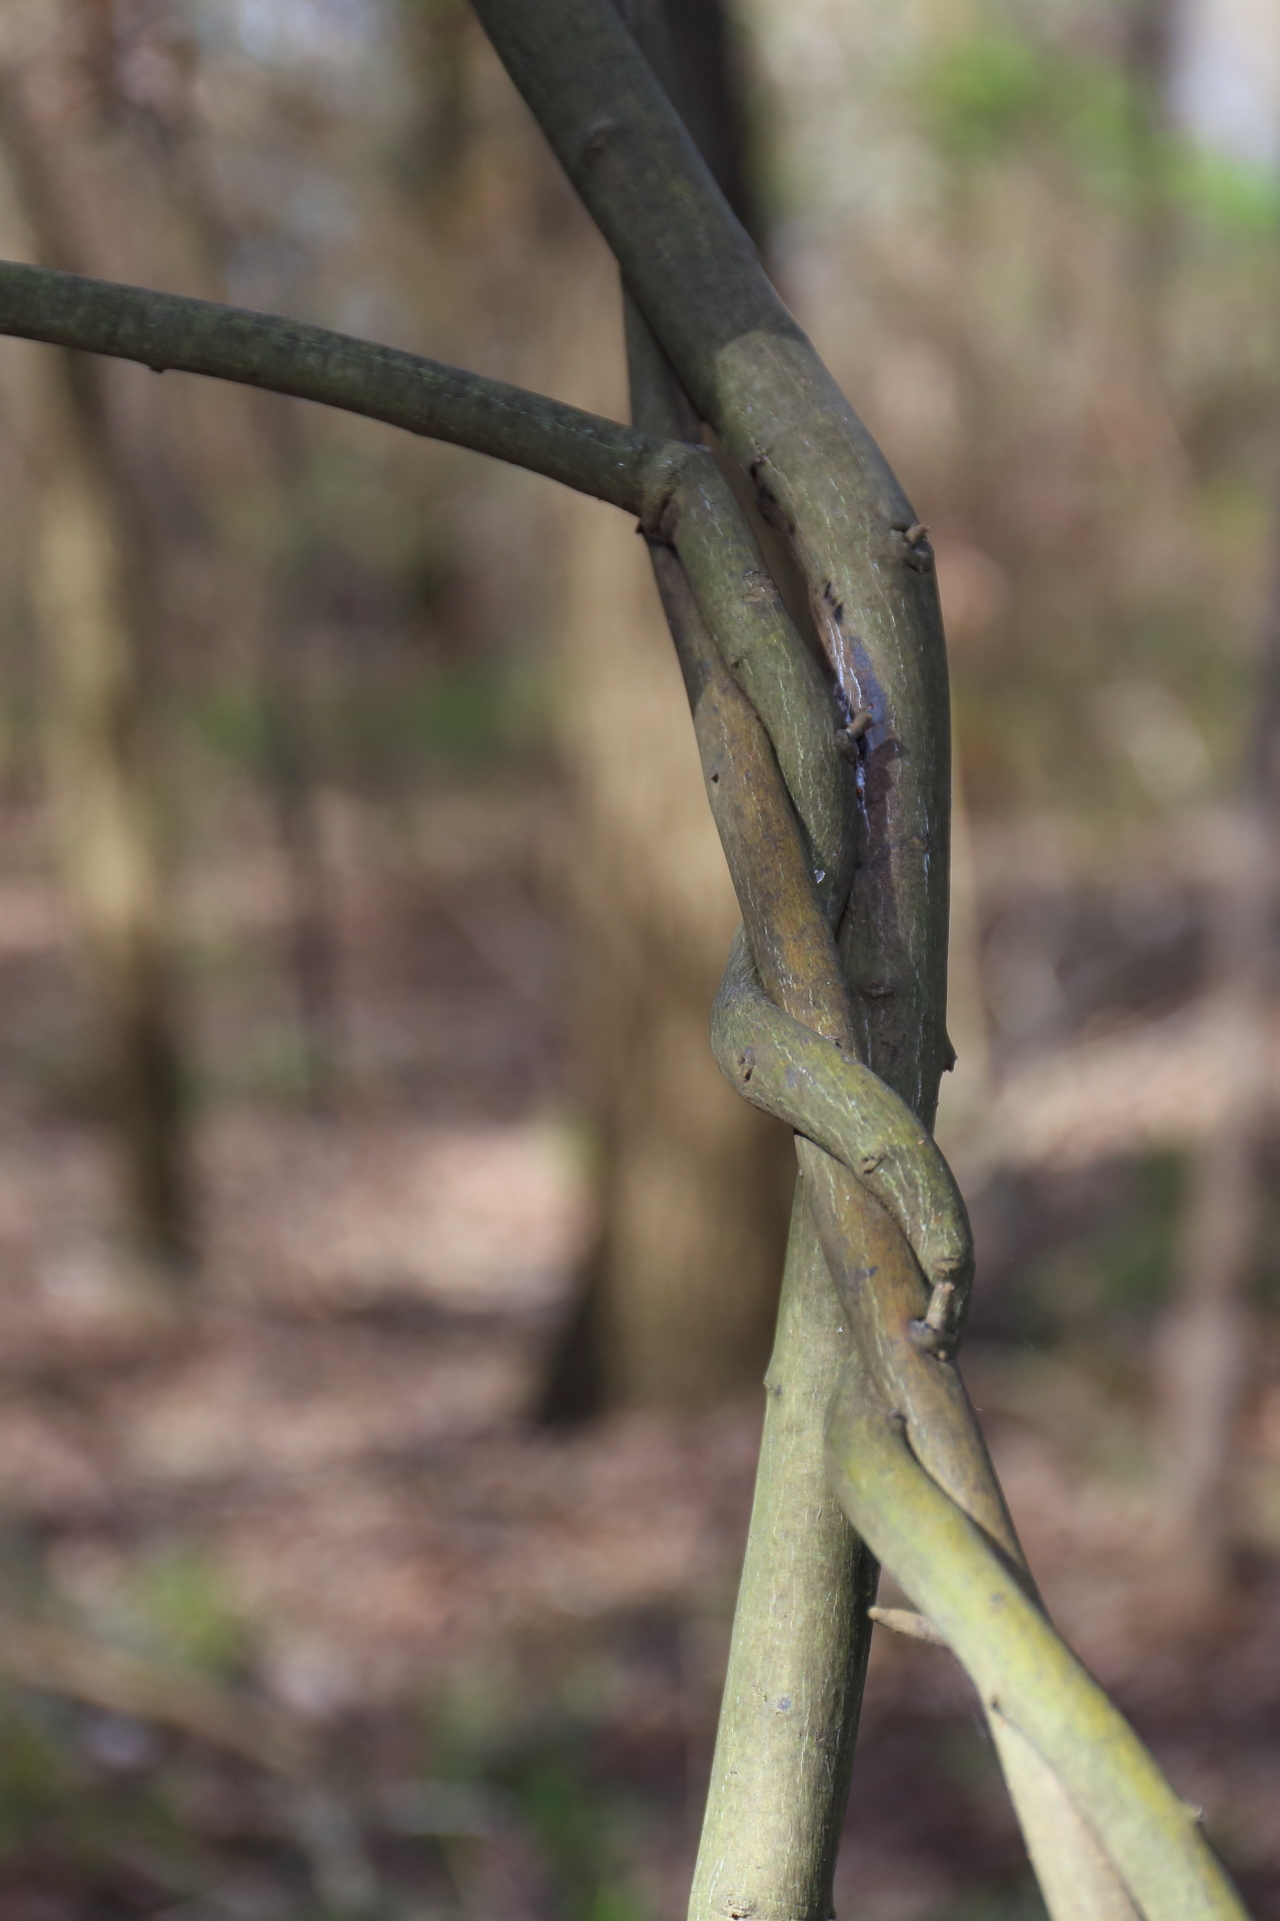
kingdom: Plantae
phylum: Tracheophyta
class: Magnoliopsida
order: Rosales
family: Rhamnaceae
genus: Berchemia
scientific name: Berchemia scandens
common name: Supplejack
